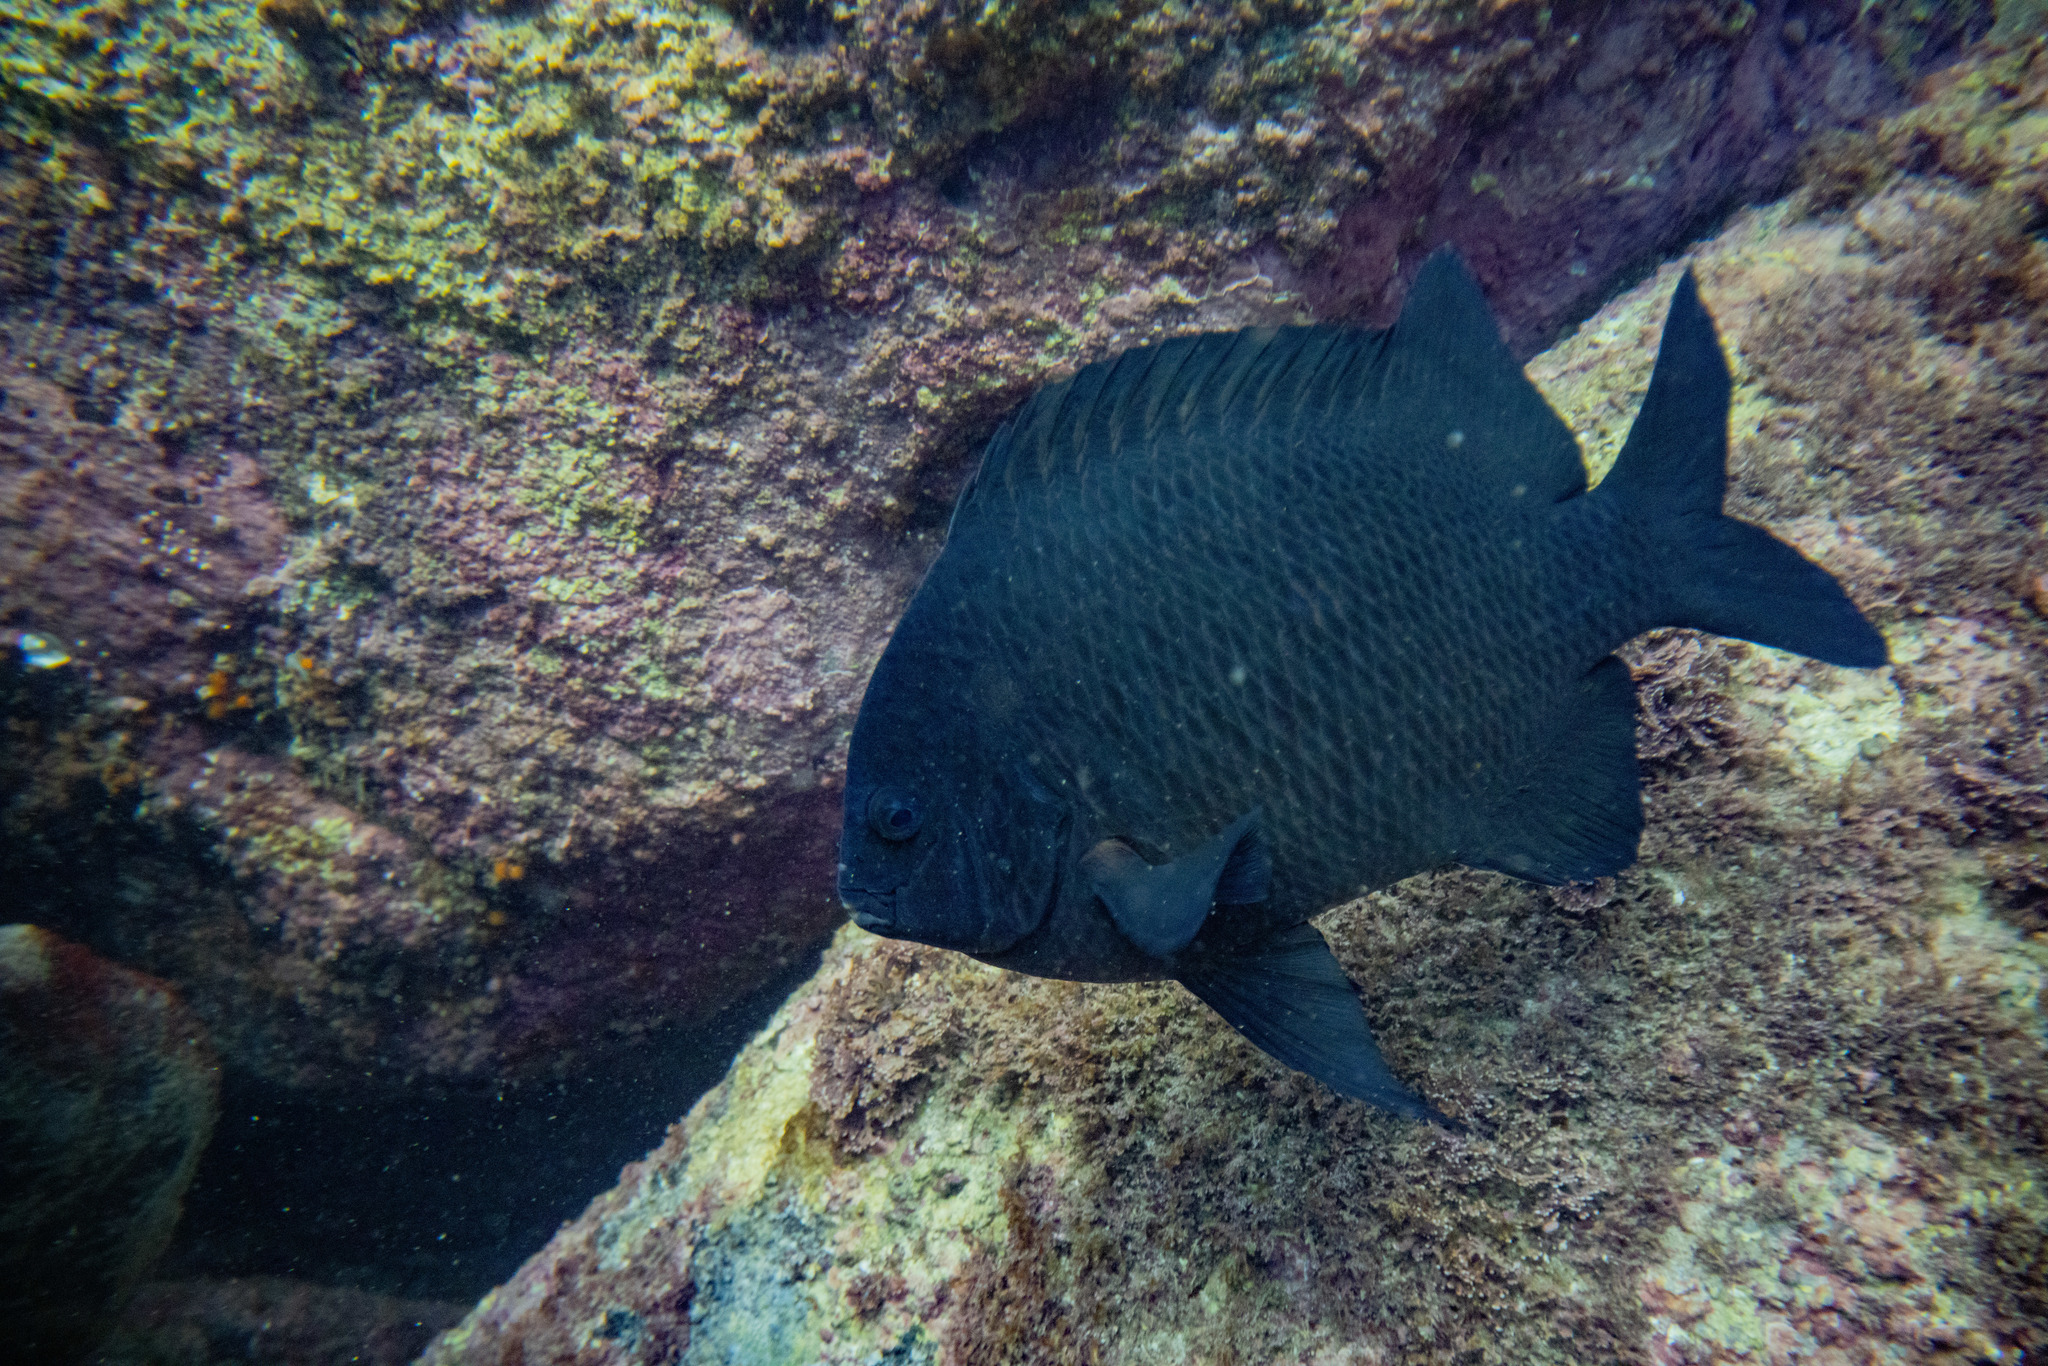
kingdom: Animalia
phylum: Chordata
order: Perciformes
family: Pomacentridae
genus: Parma
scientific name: Parma alboscapularis
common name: Black angelfish
